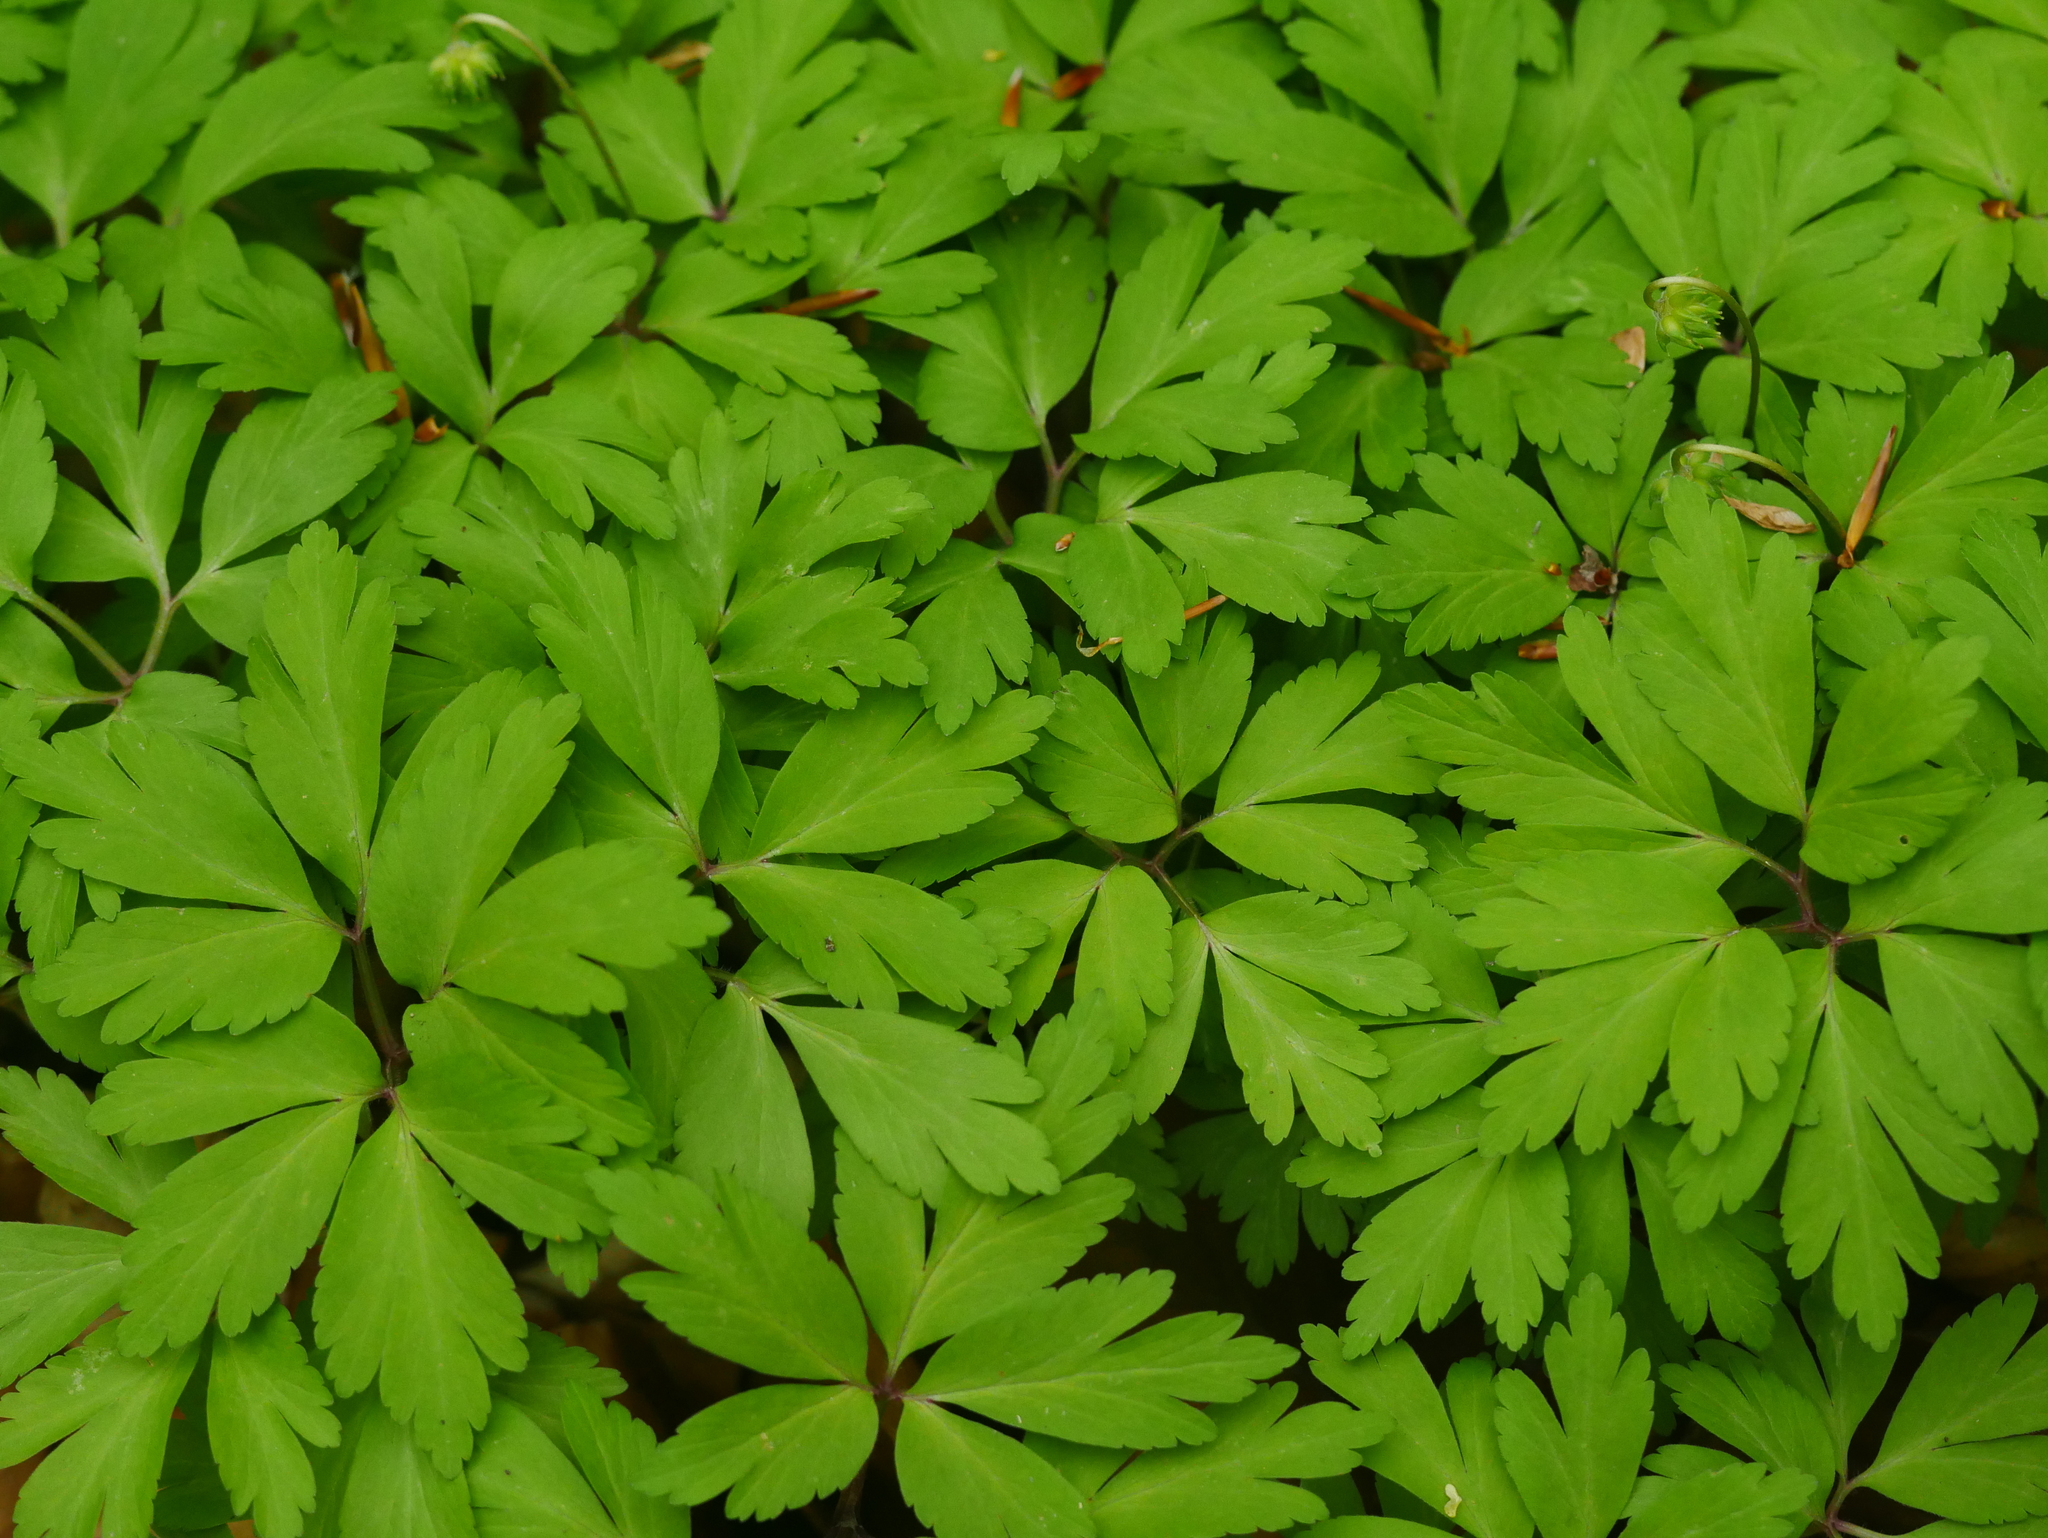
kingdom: Plantae
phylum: Tracheophyta
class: Magnoliopsida
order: Ranunculales
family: Ranunculaceae
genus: Anemone
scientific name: Anemone nemorosa
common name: Wood anemone
